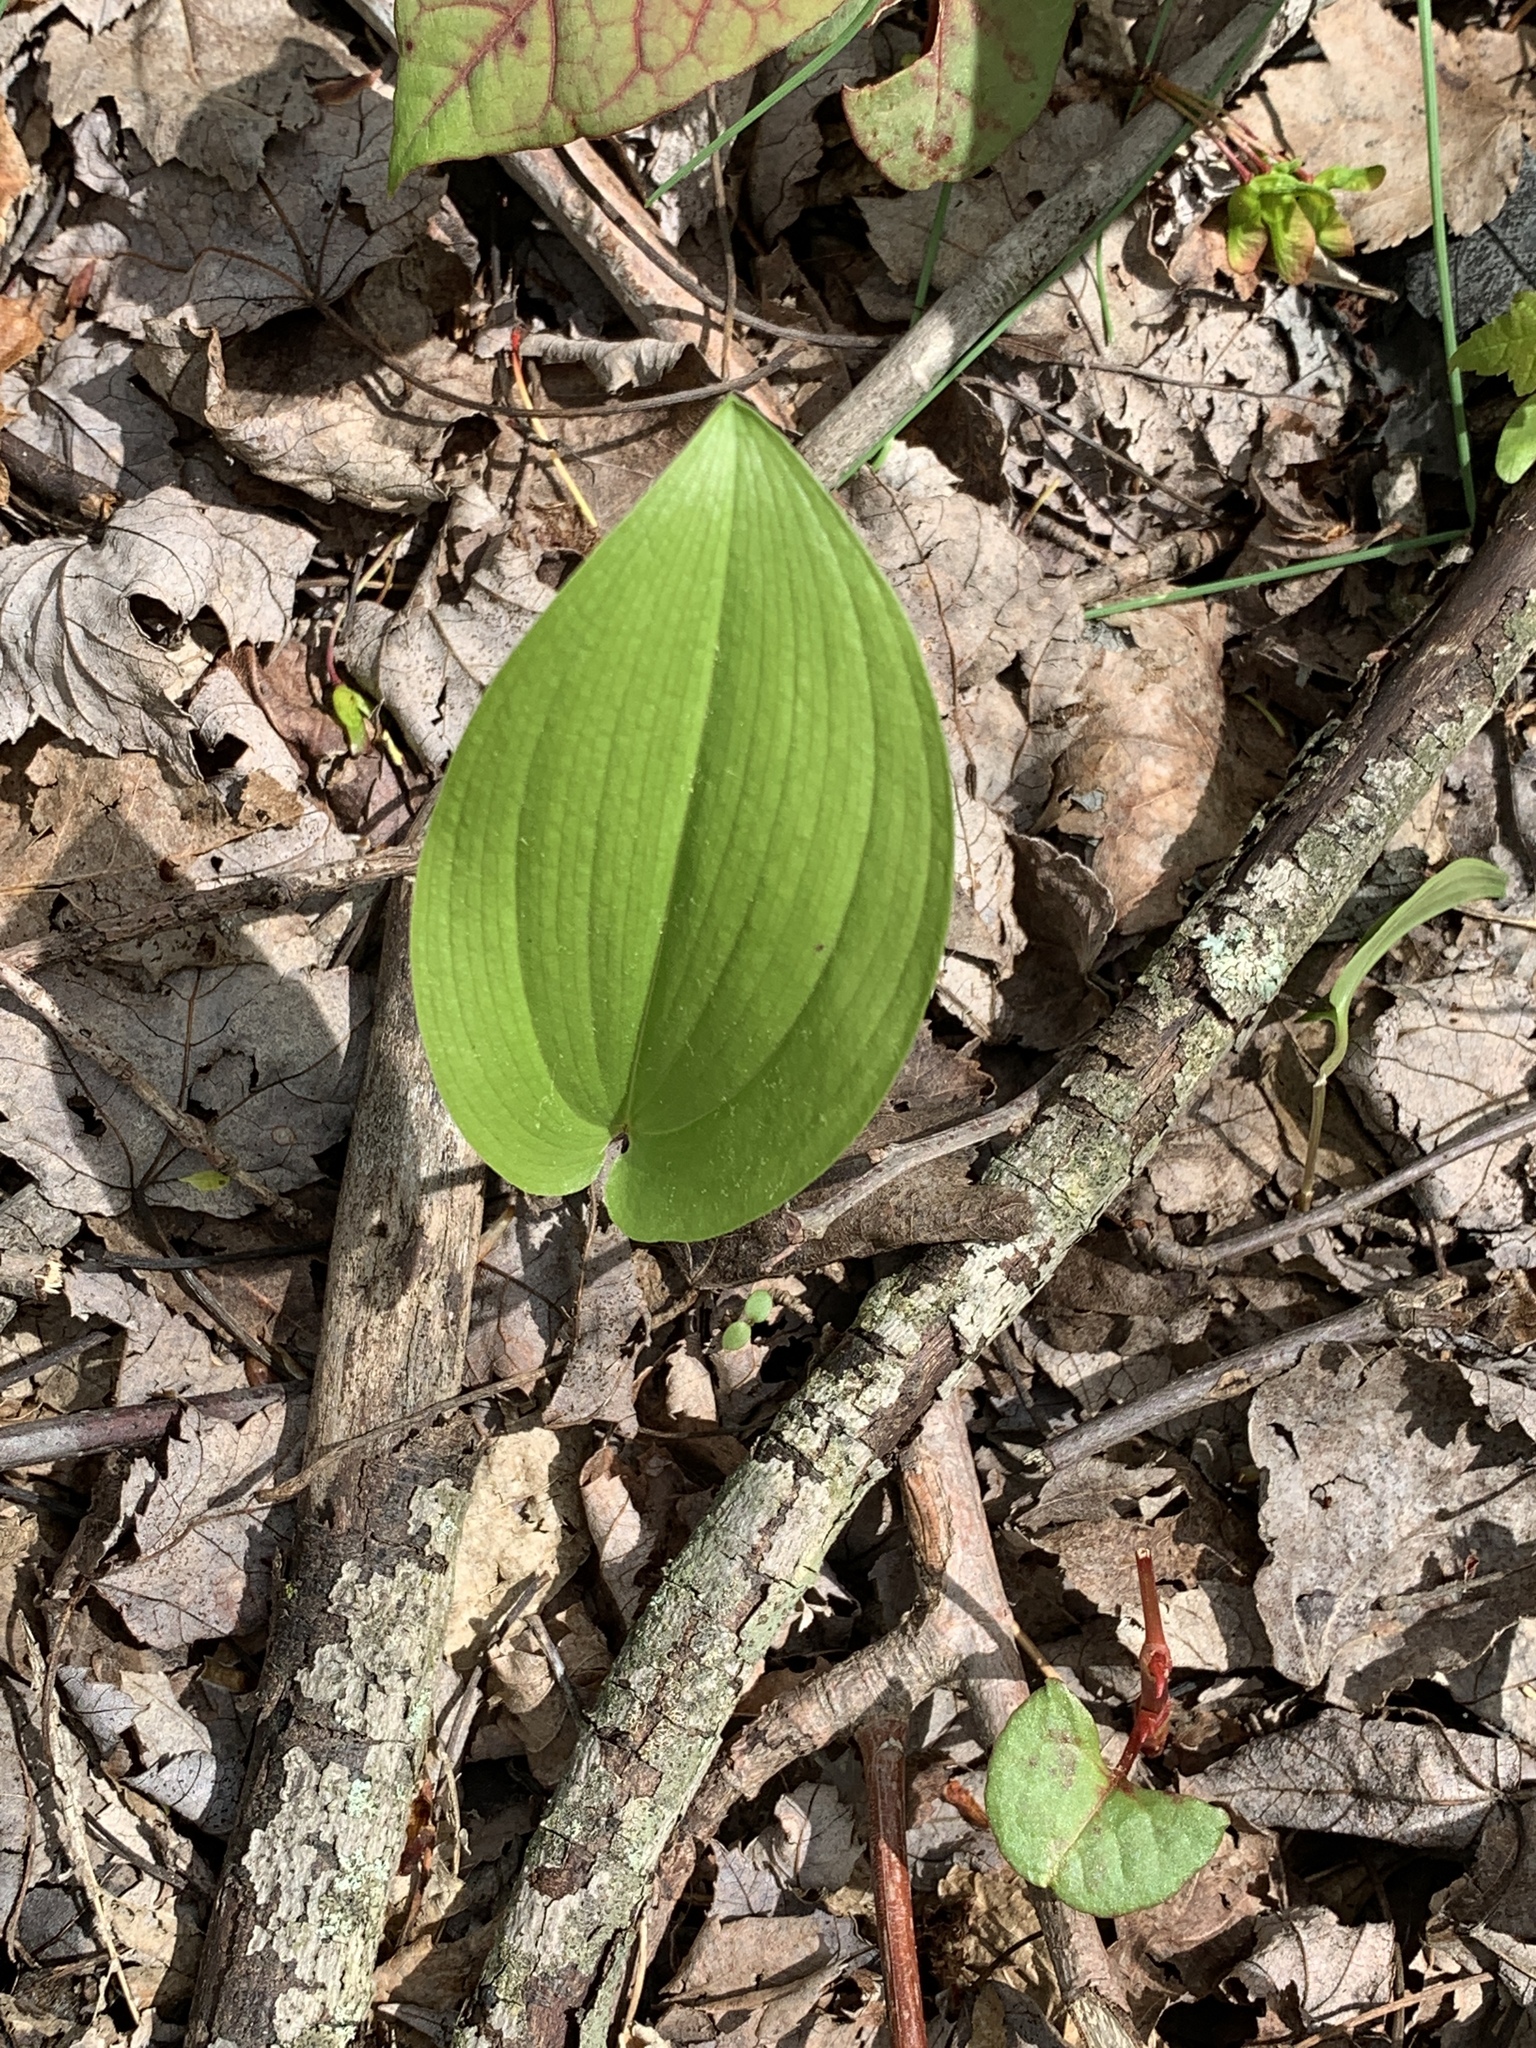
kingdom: Plantae
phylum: Tracheophyta
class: Liliopsida
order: Asparagales
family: Asparagaceae
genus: Maianthemum
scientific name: Maianthemum canadense
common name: False lily-of-the-valley
